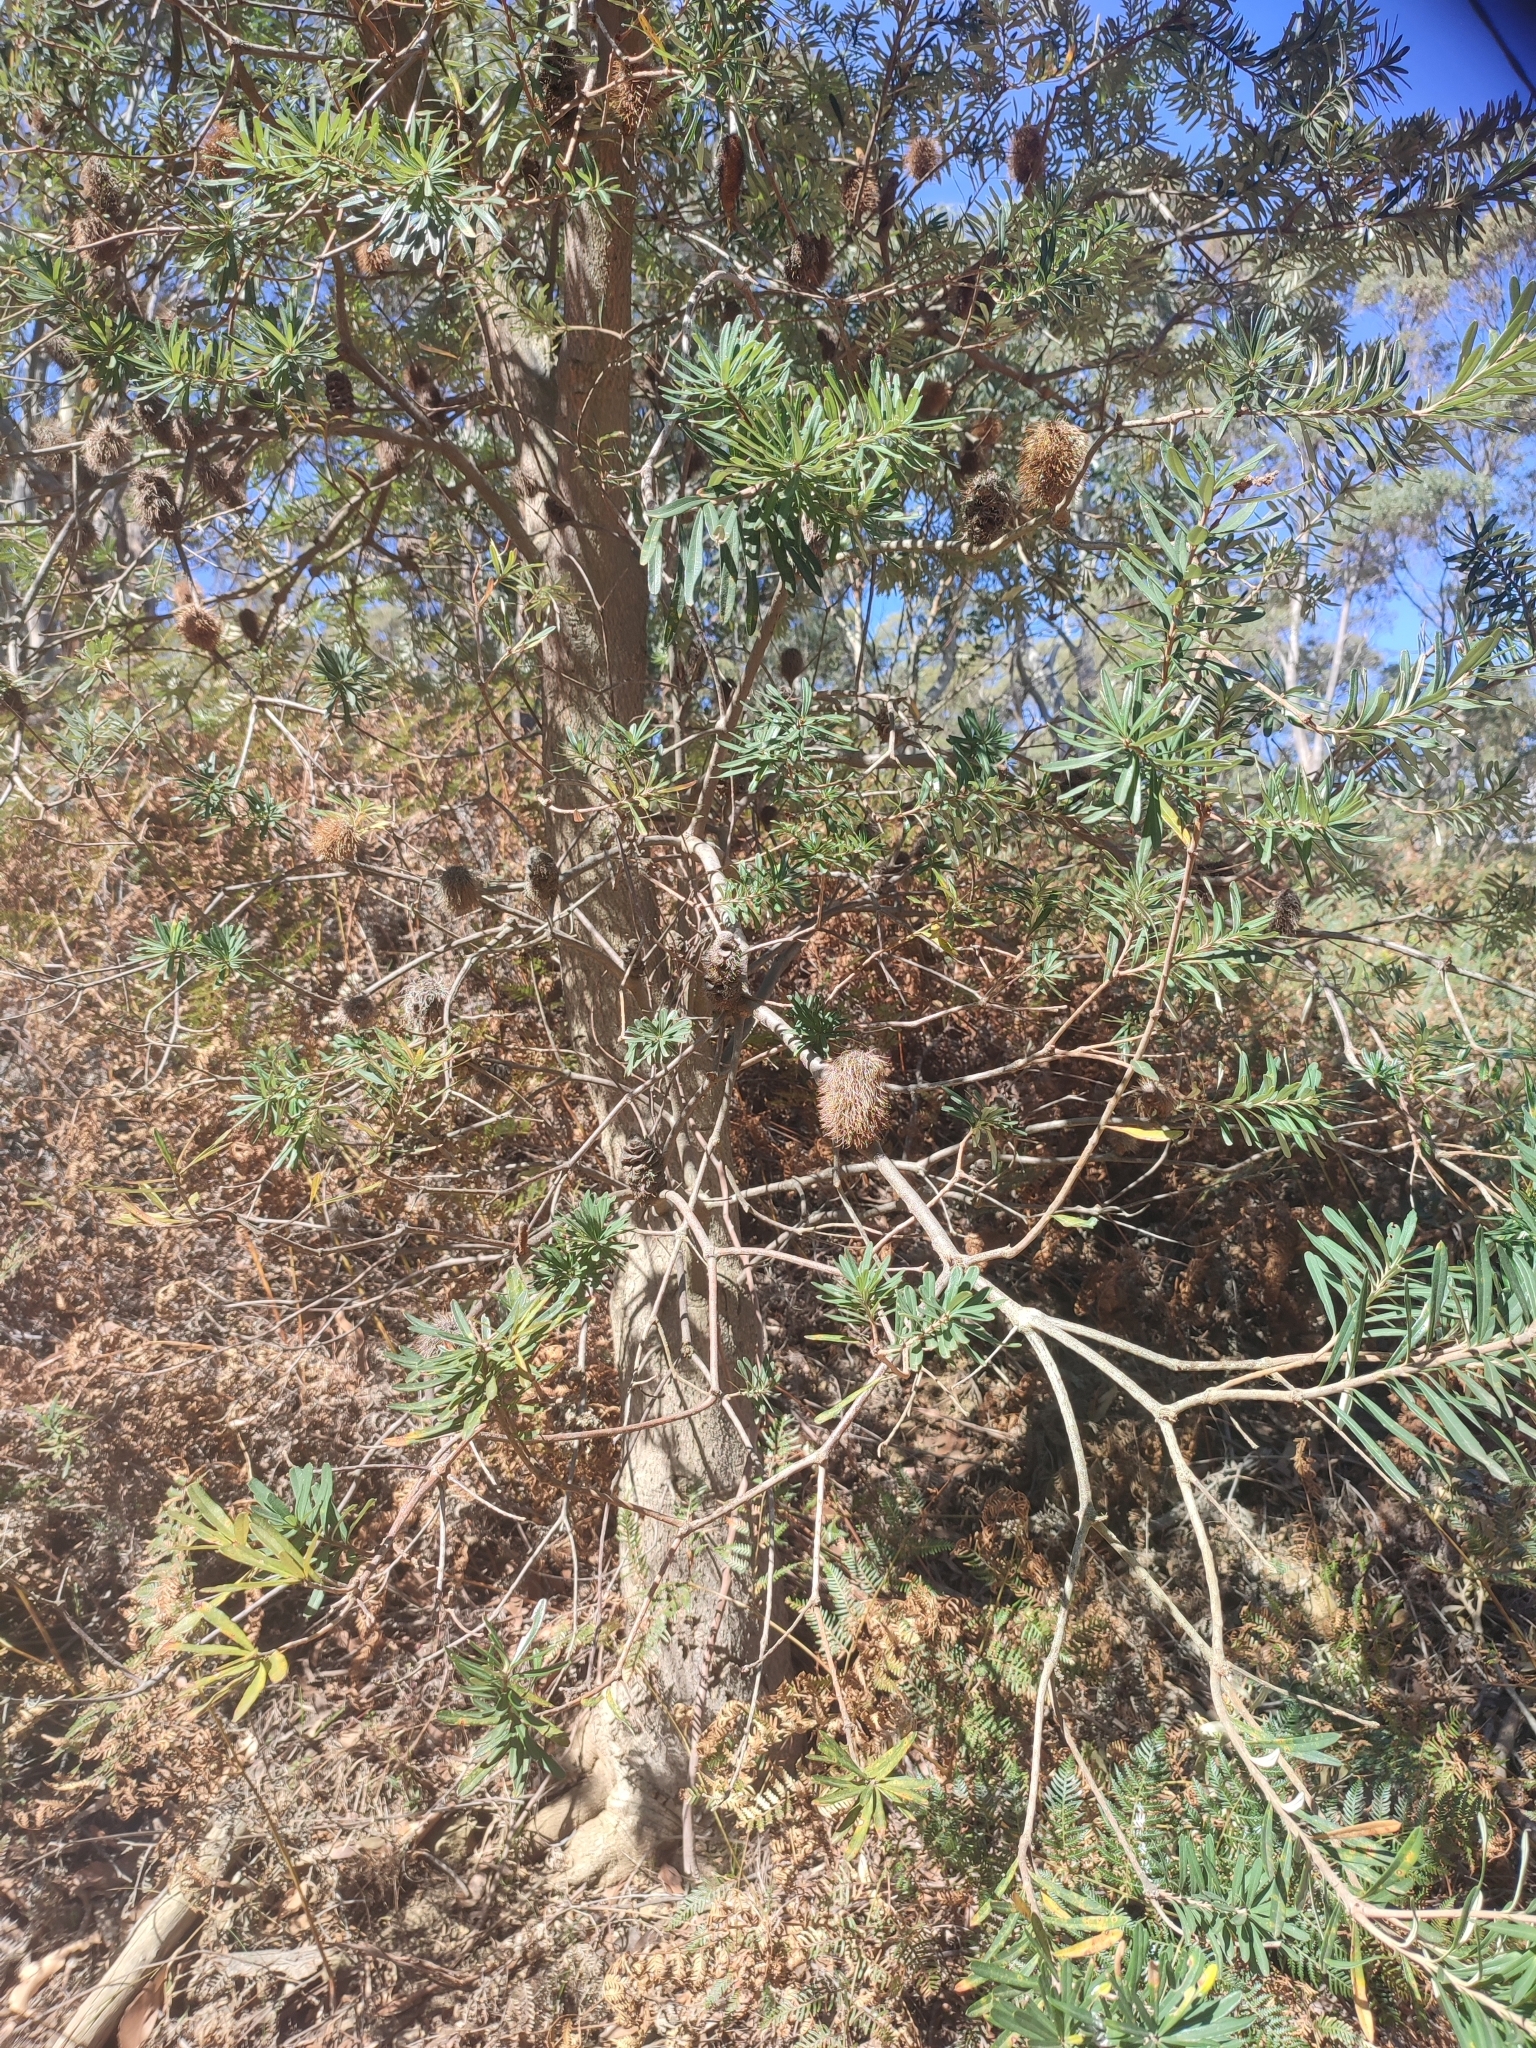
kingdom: Plantae
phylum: Tracheophyta
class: Magnoliopsida
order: Proteales
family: Proteaceae
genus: Banksia
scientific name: Banksia marginata
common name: Silver banksia
